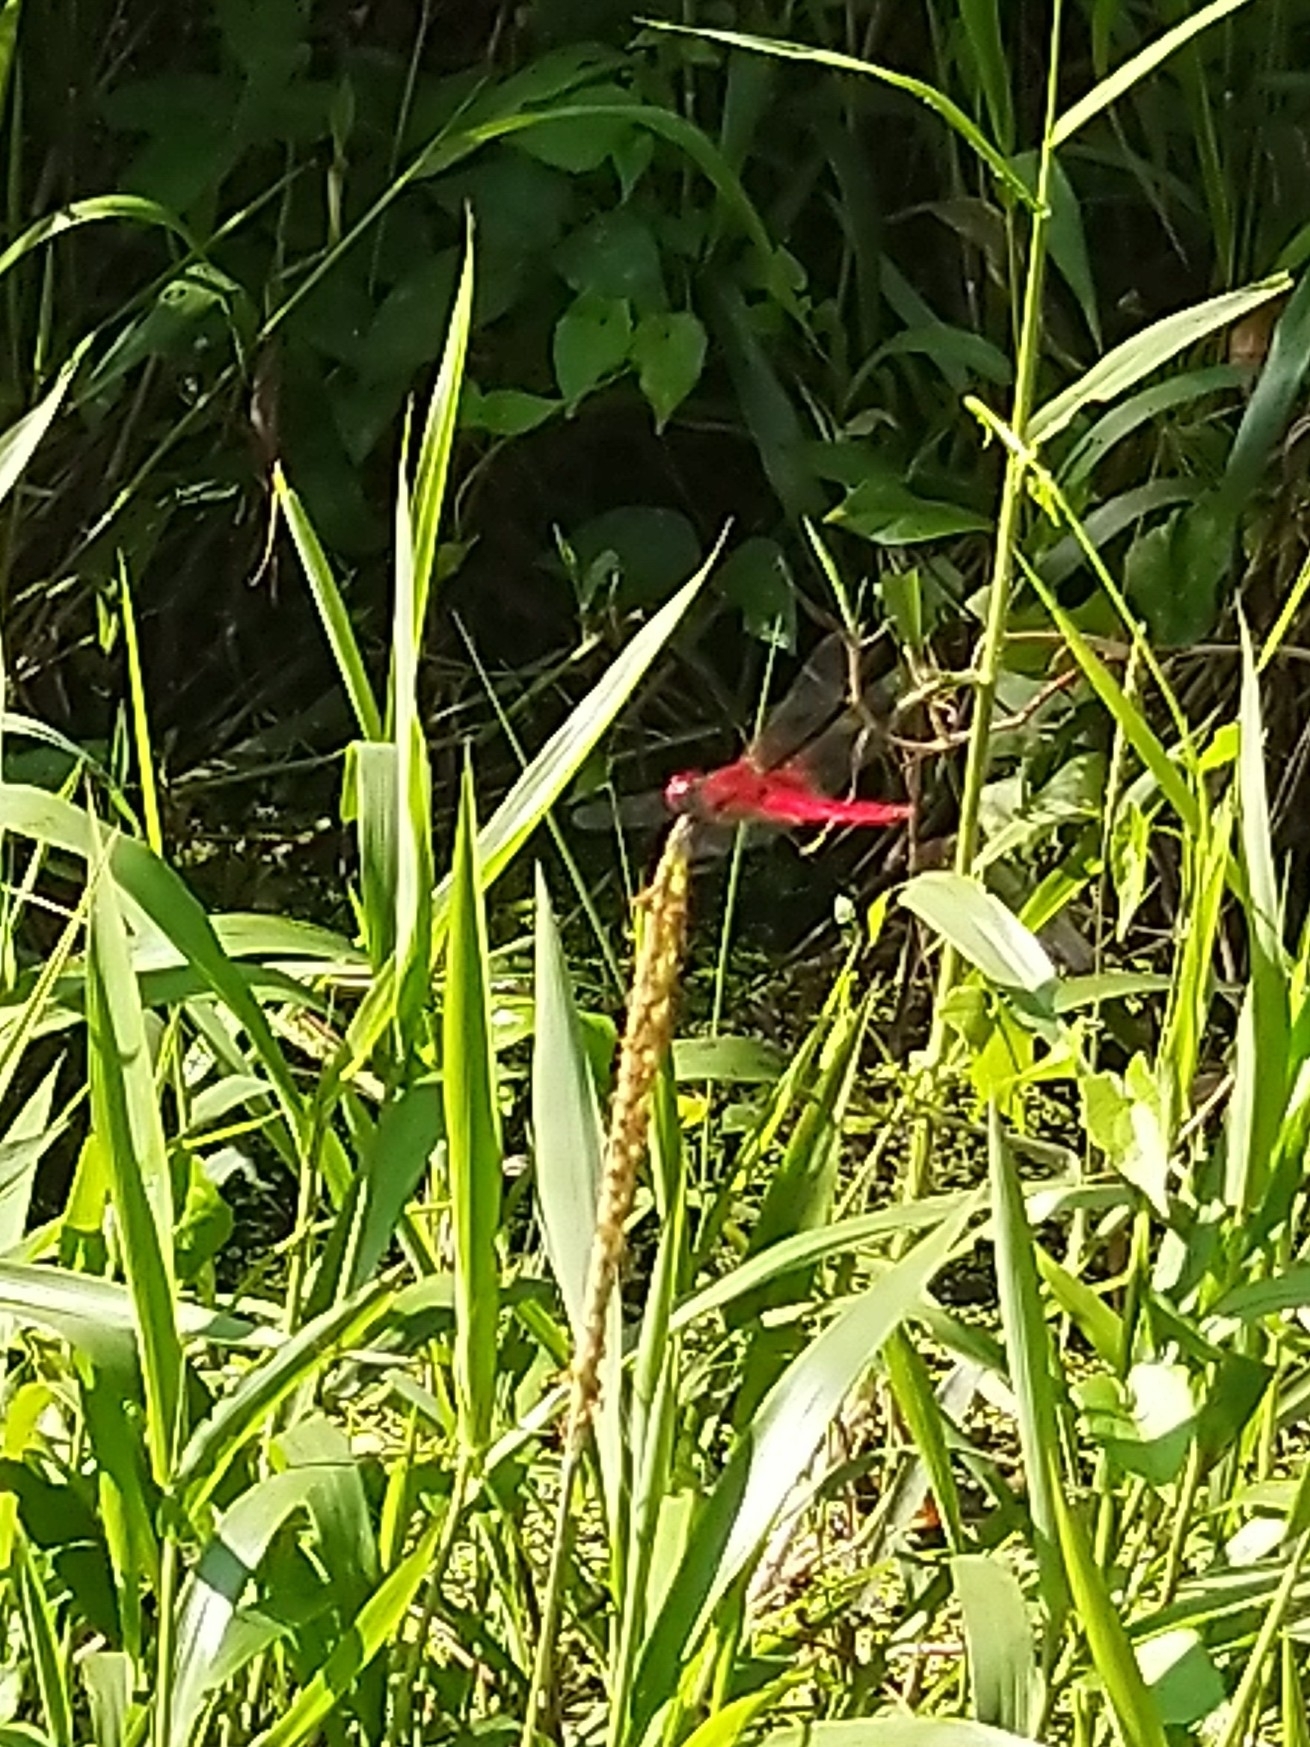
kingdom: Animalia
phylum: Arthropoda
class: Insecta
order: Odonata
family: Libellulidae
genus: Urothemis
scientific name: Urothemis signata
